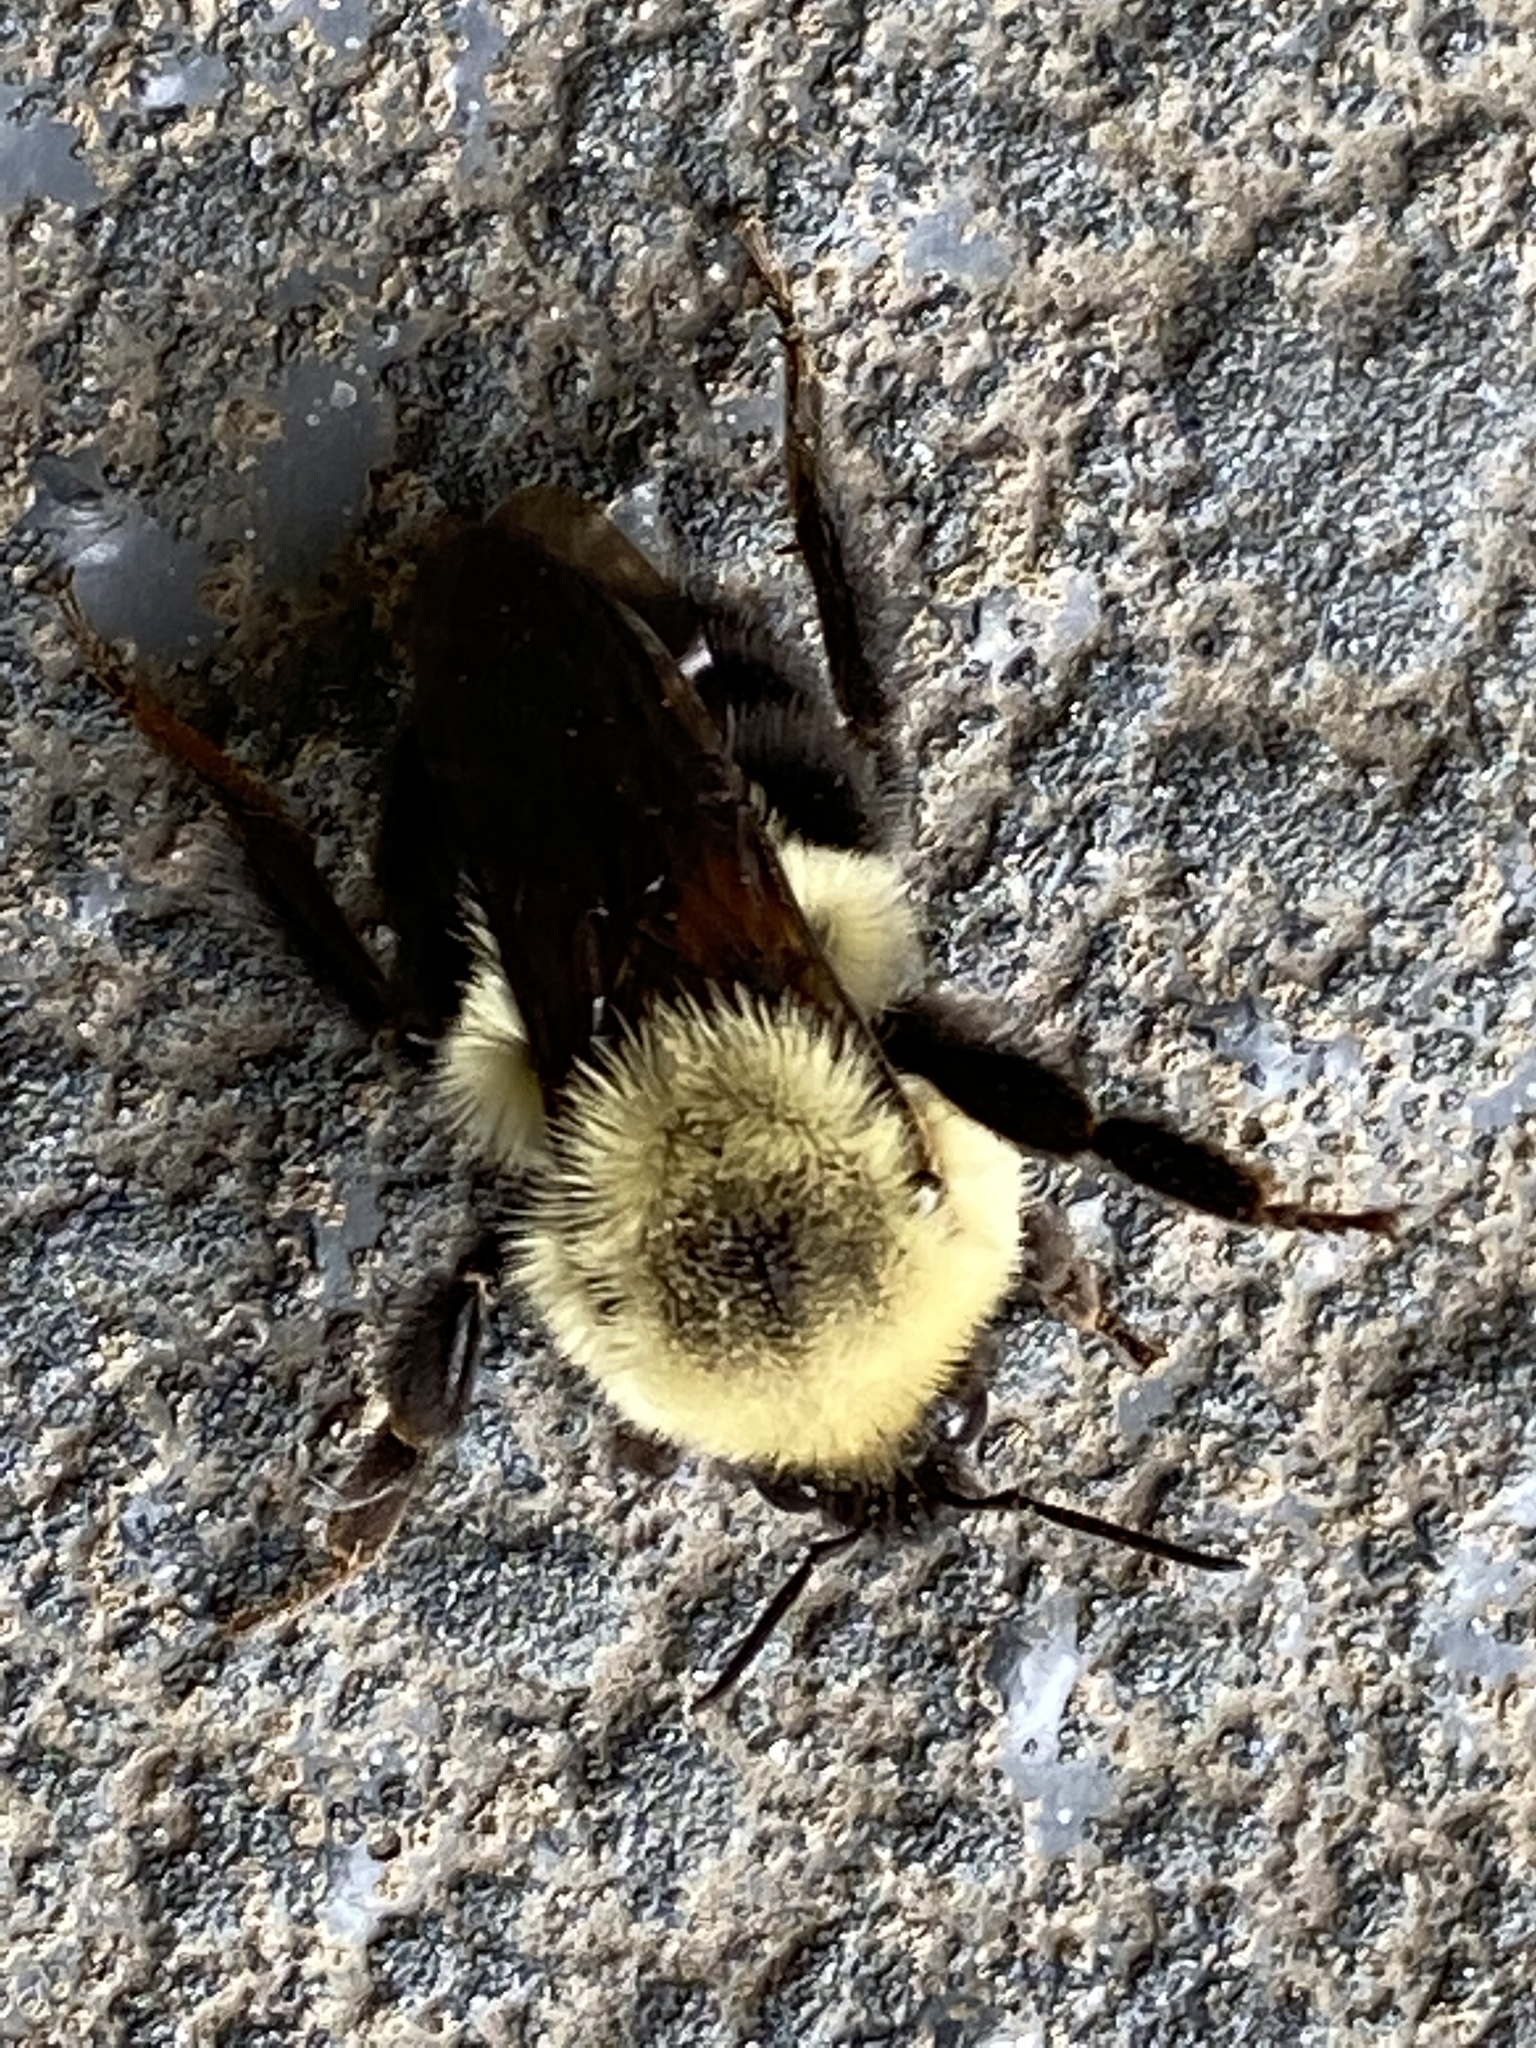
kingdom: Animalia
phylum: Arthropoda
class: Insecta
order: Hymenoptera
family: Apidae
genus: Bombus
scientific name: Bombus bimaculatus
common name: Two-spotted bumble bee
